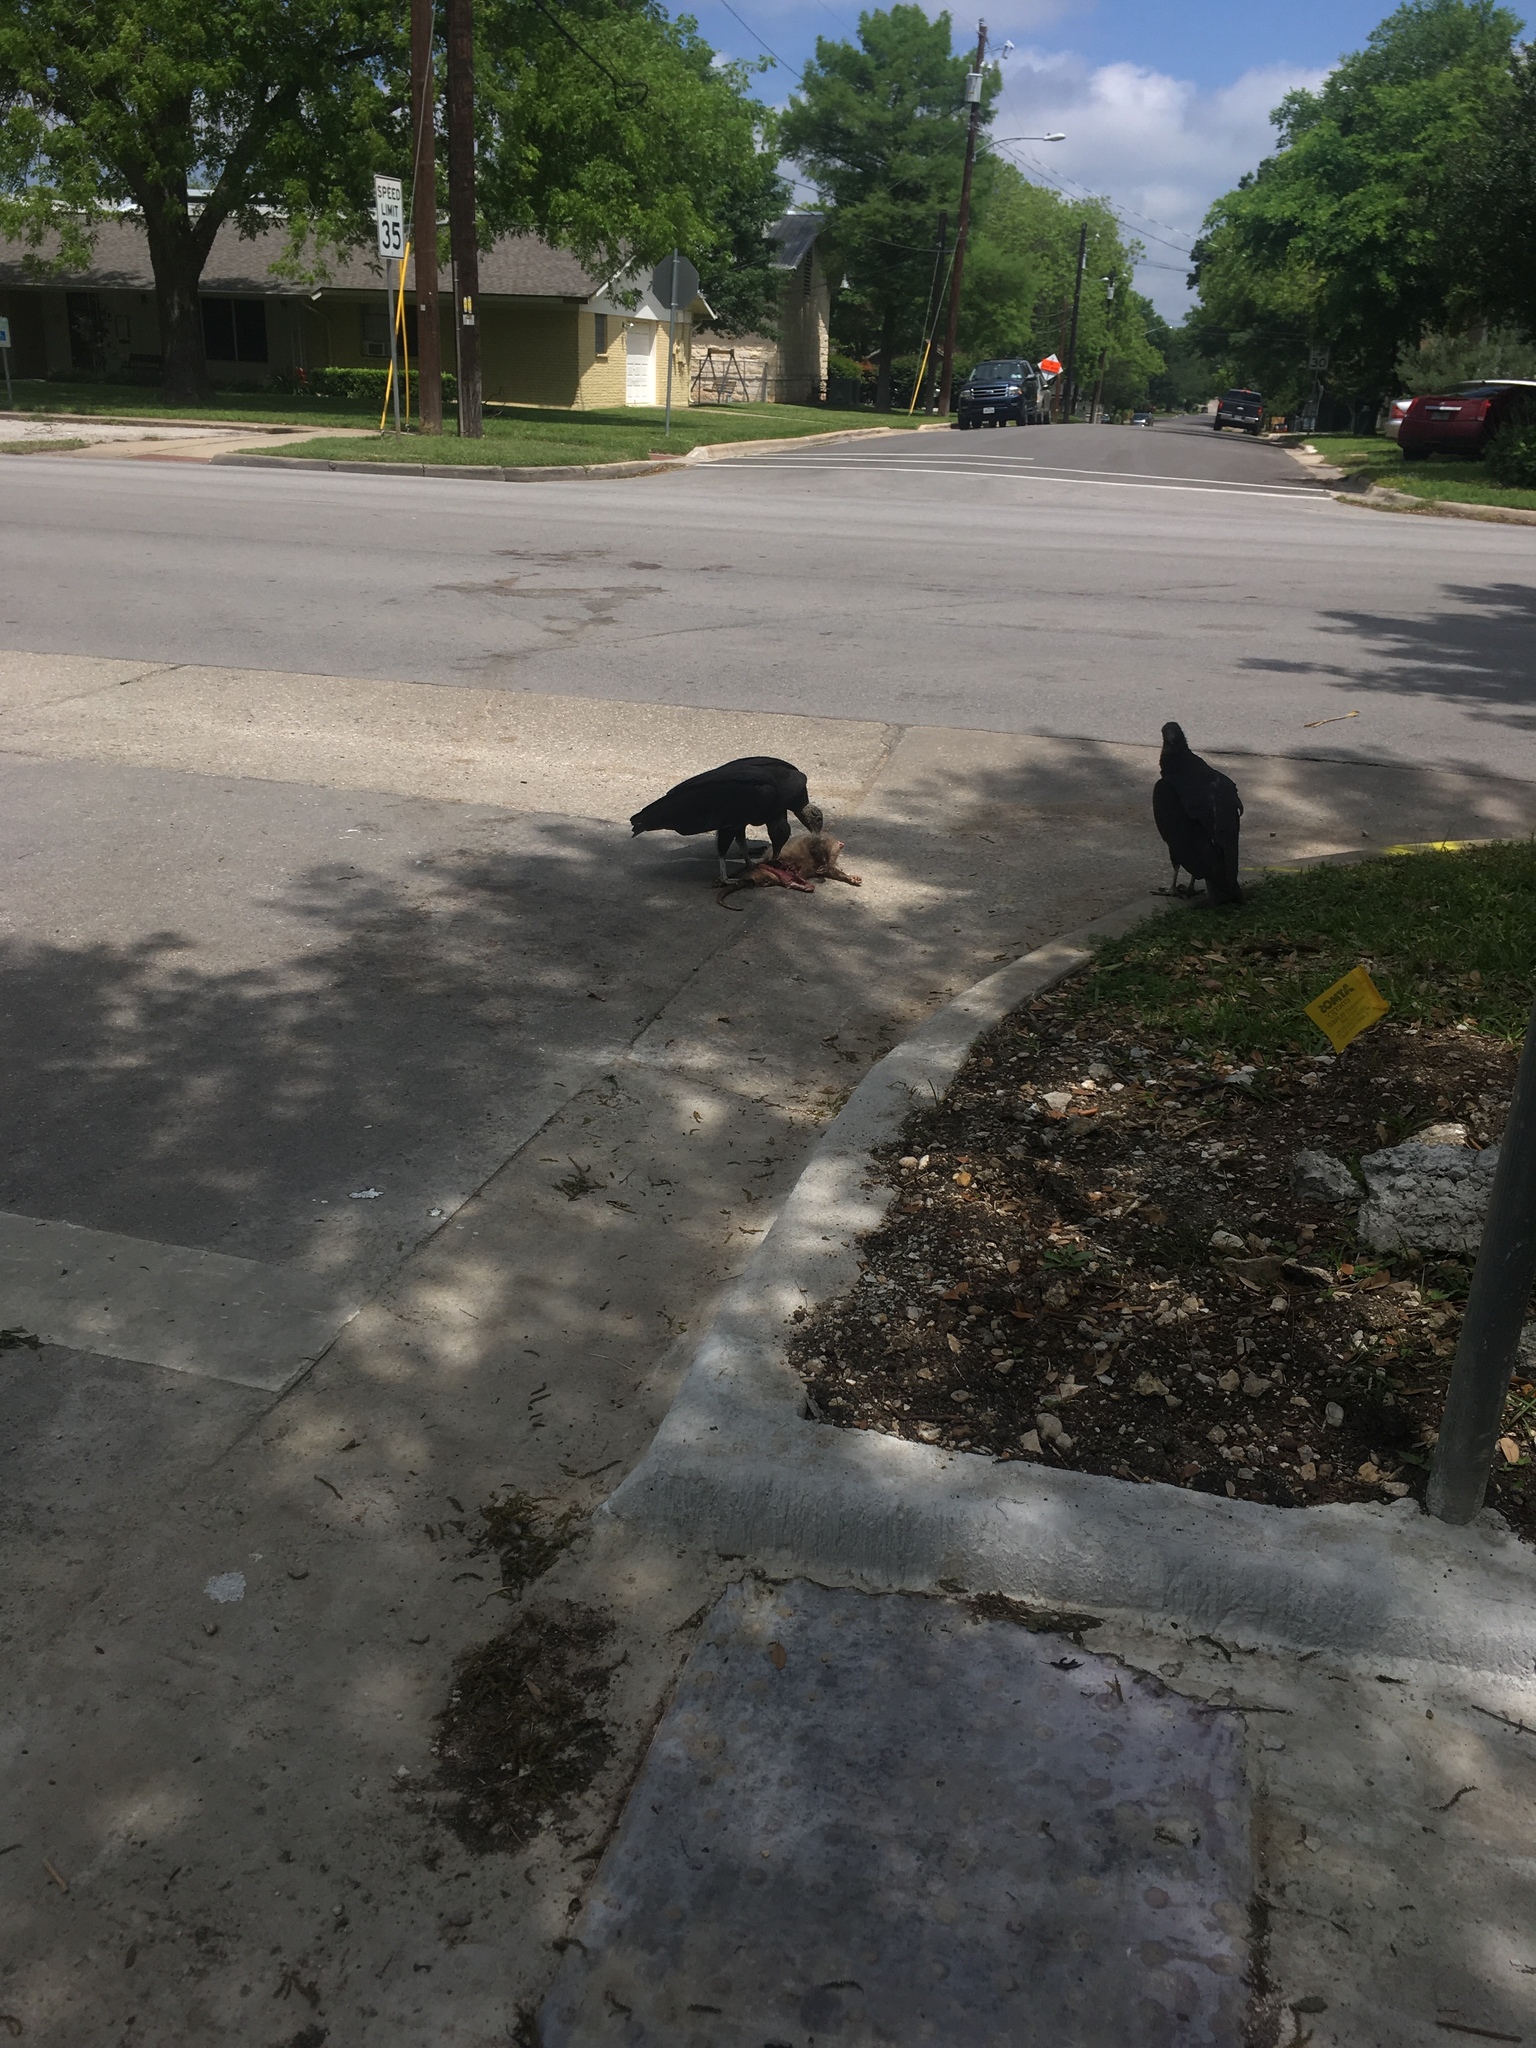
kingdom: Animalia
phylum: Chordata
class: Aves
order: Accipitriformes
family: Cathartidae
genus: Coragyps
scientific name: Coragyps atratus
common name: Black vulture
